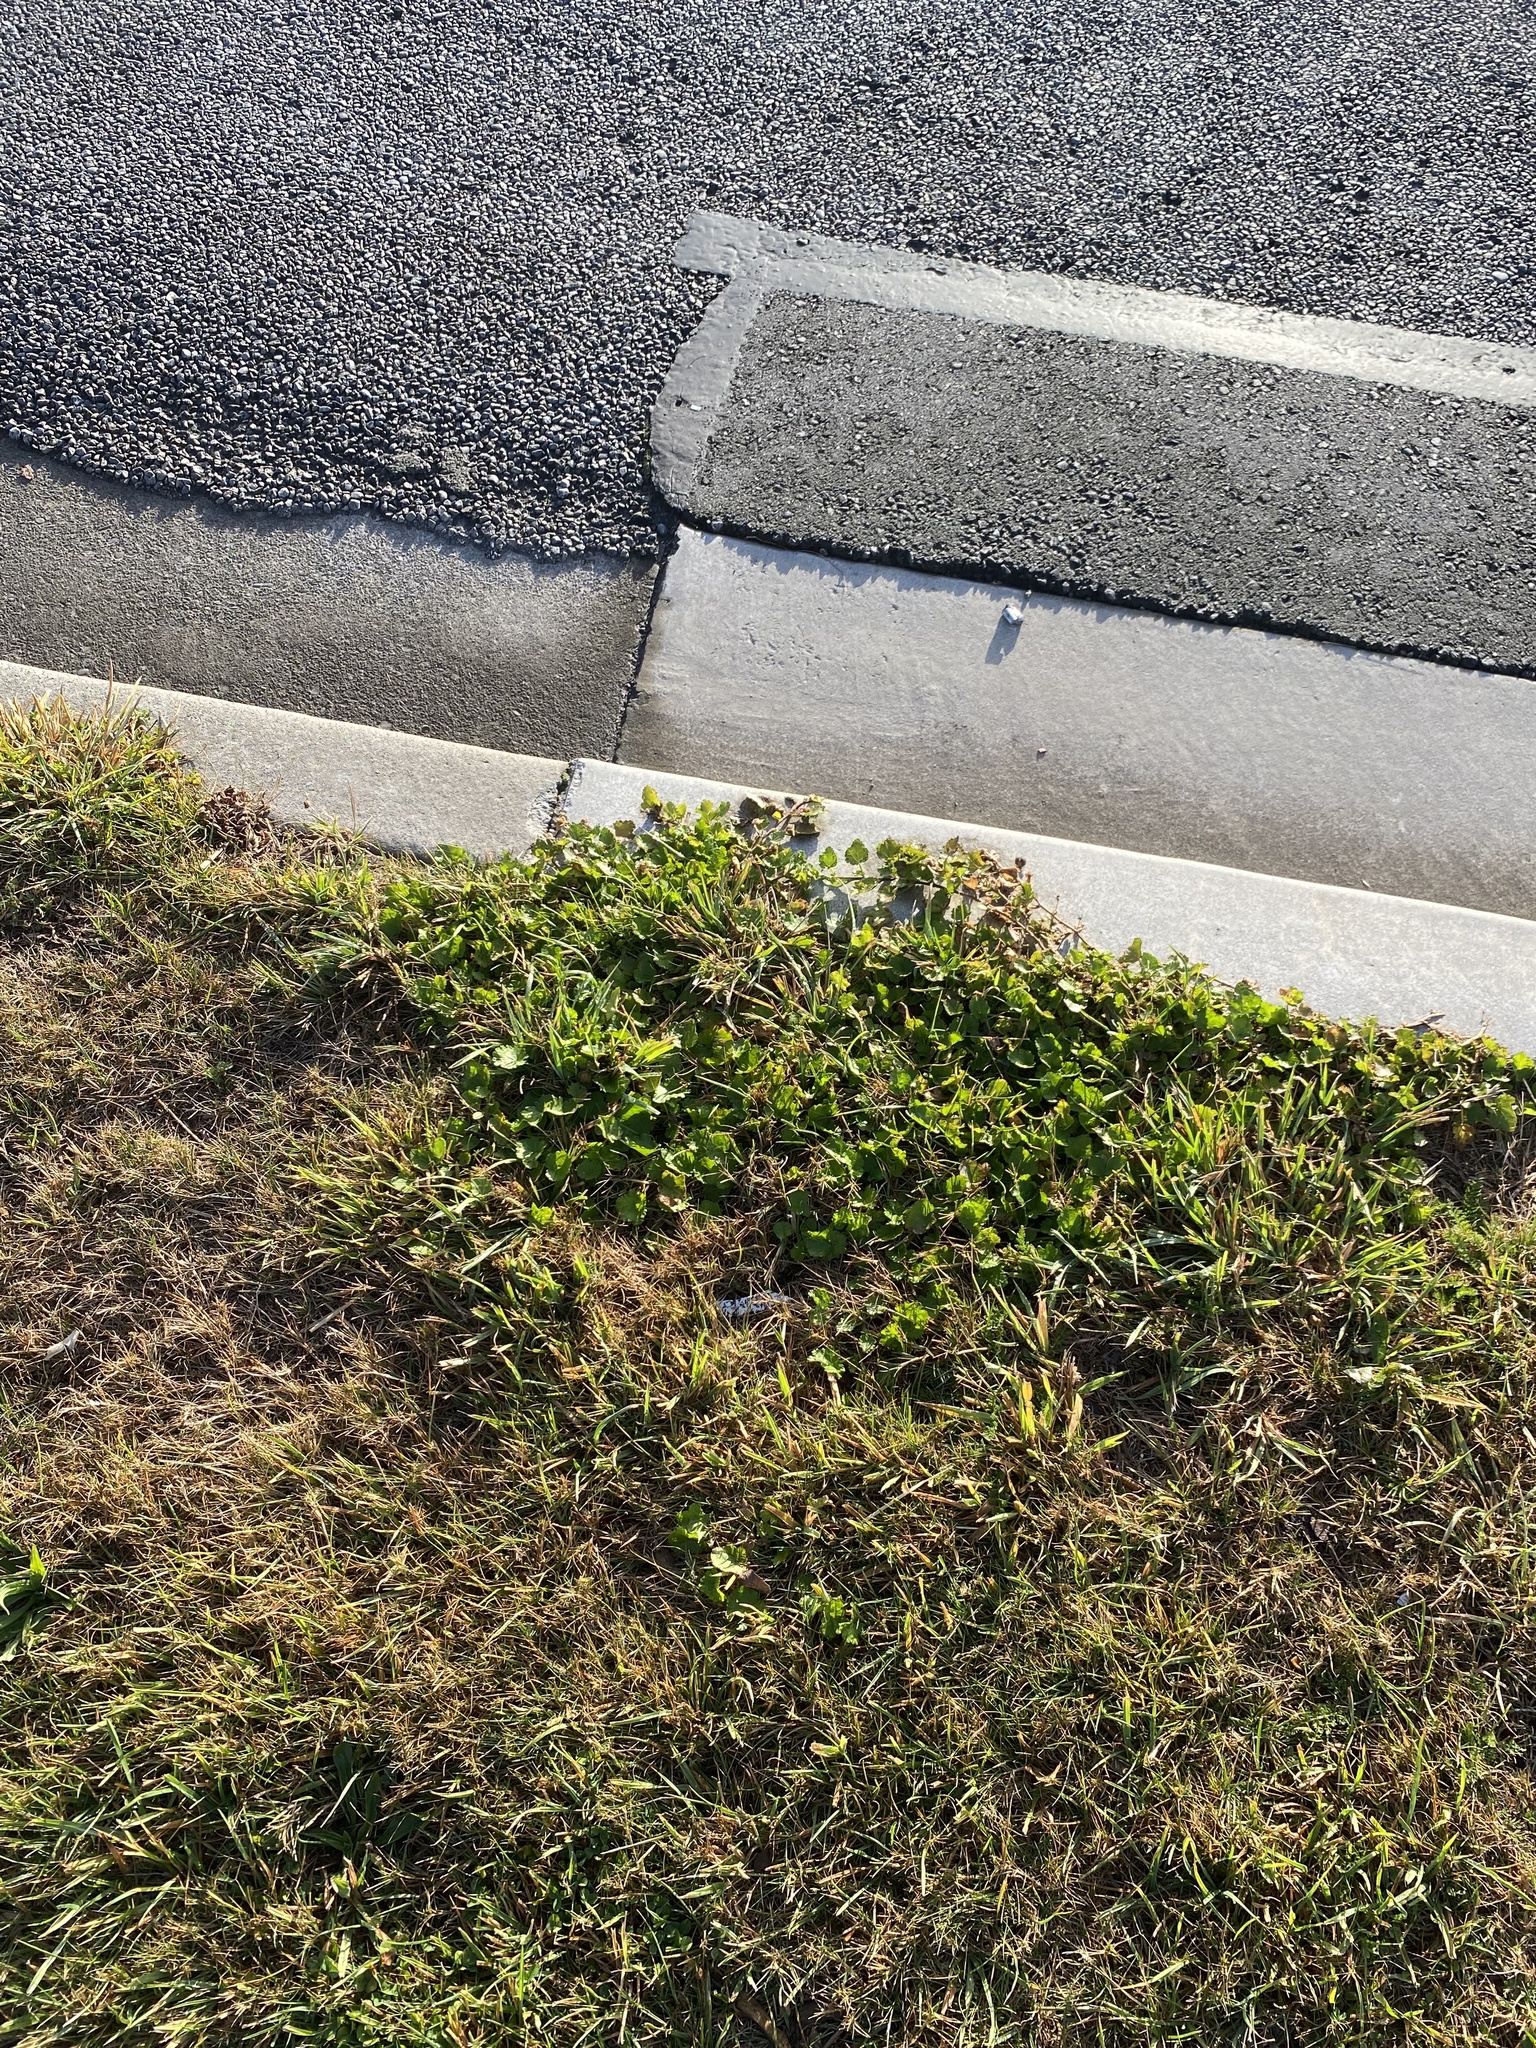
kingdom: Plantae
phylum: Tracheophyta
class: Magnoliopsida
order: Malvales
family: Malvaceae
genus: Modiola
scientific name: Modiola caroliniana
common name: Carolina bristlemallow
